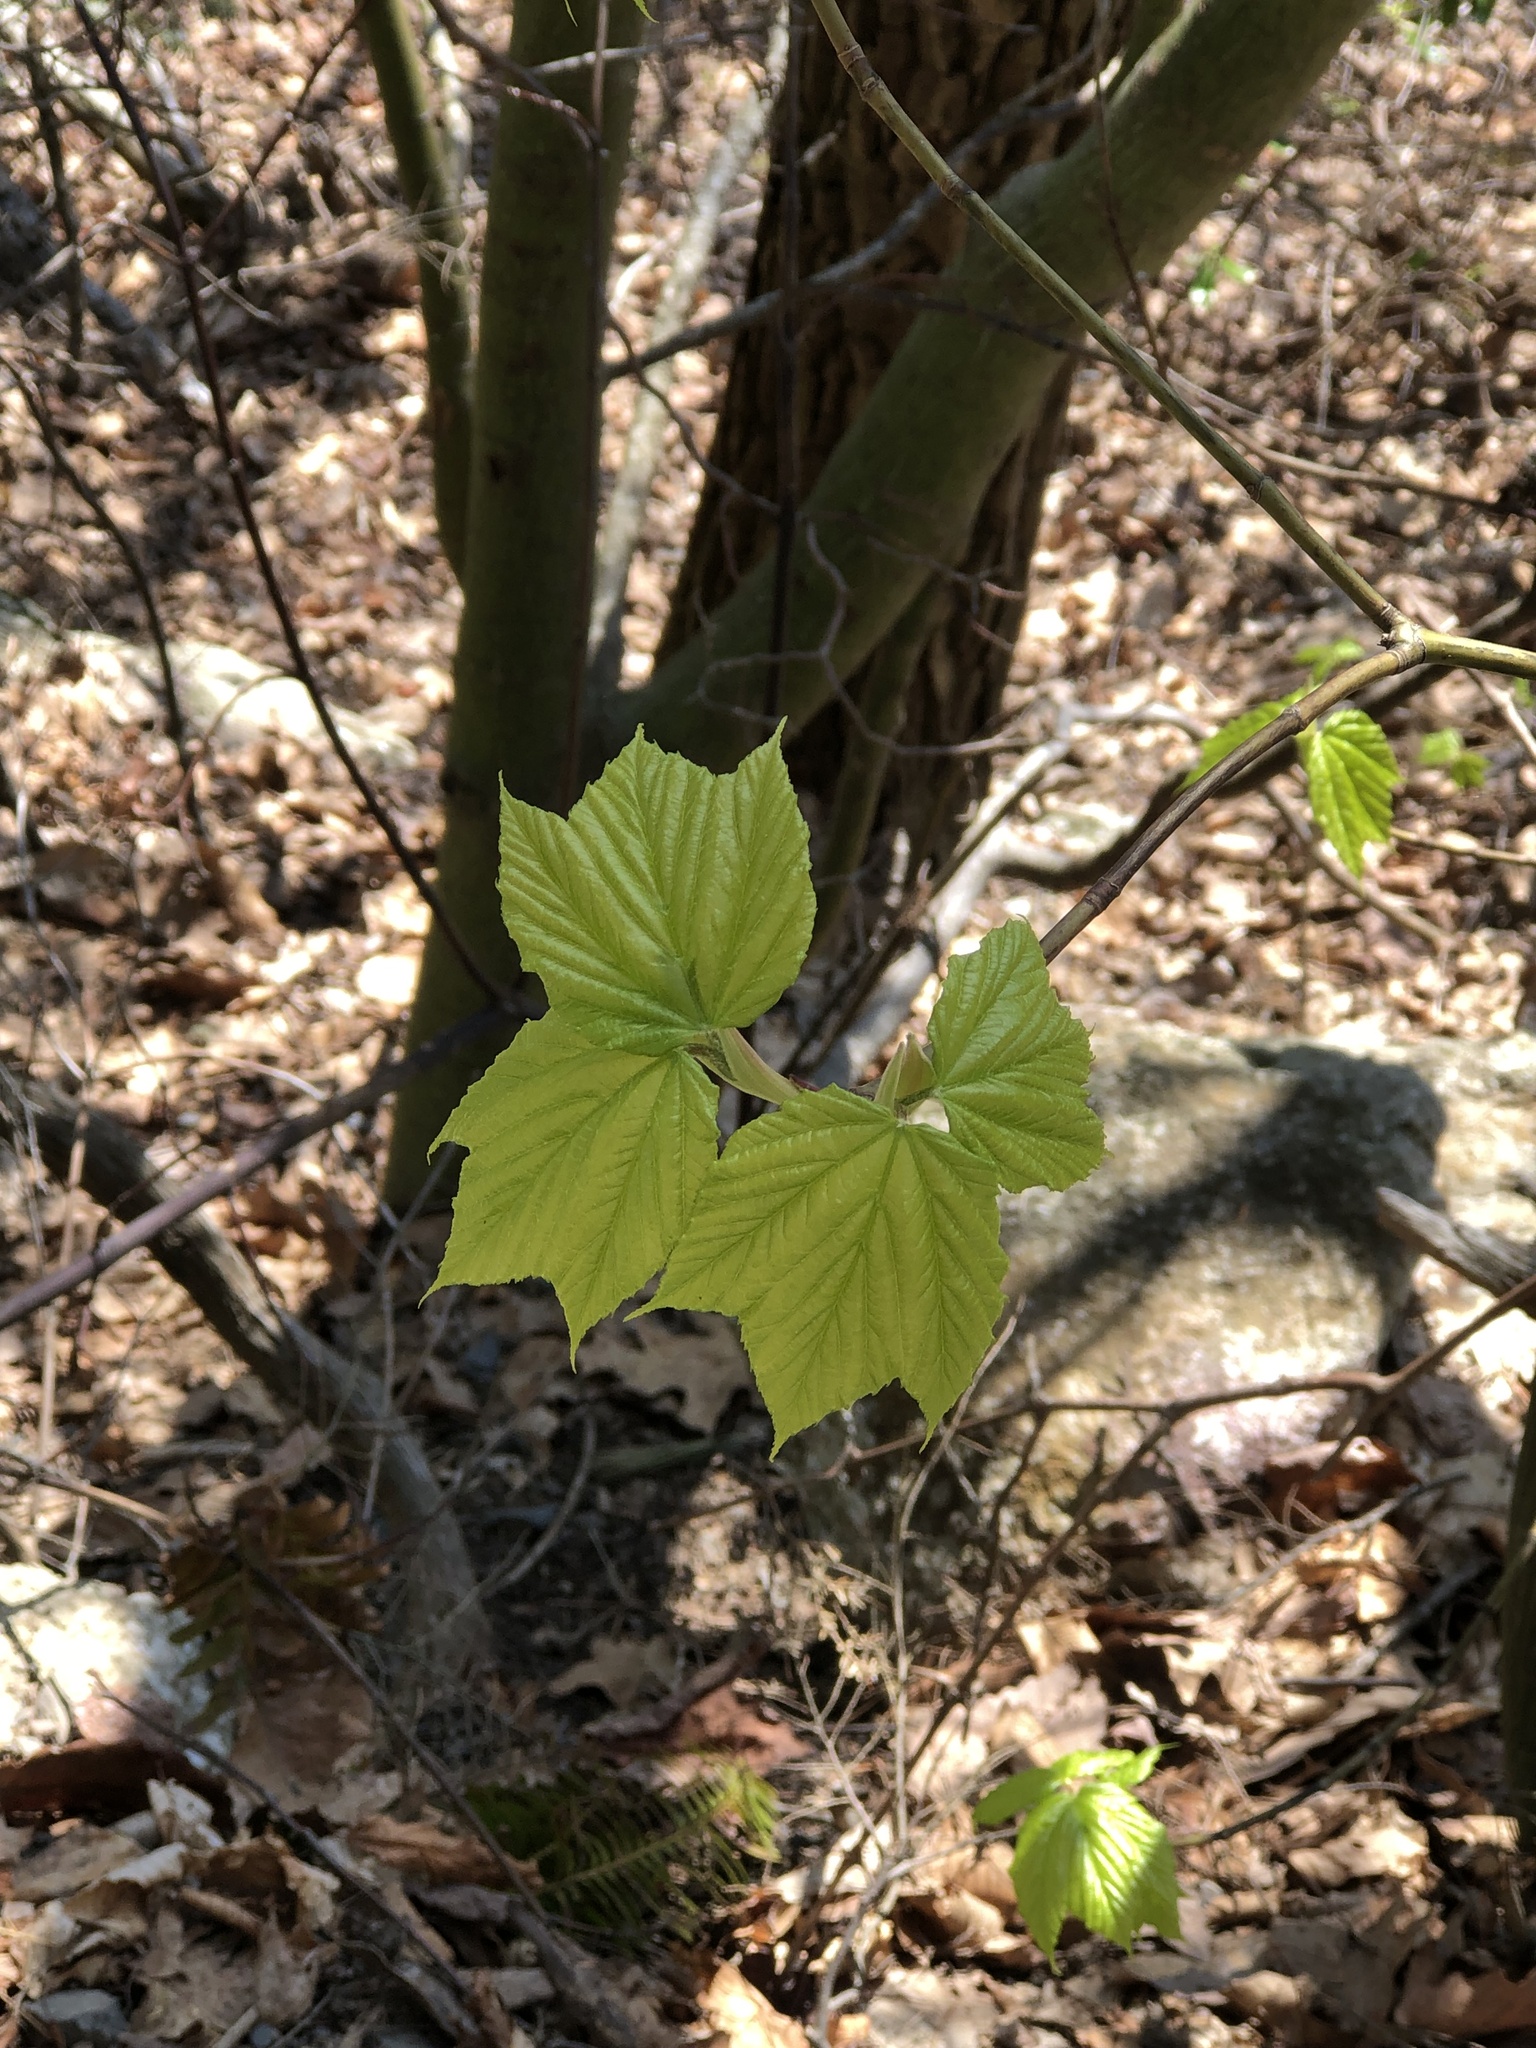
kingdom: Plantae
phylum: Tracheophyta
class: Magnoliopsida
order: Sapindales
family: Sapindaceae
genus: Acer
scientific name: Acer pensylvanicum
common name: Moosewood
